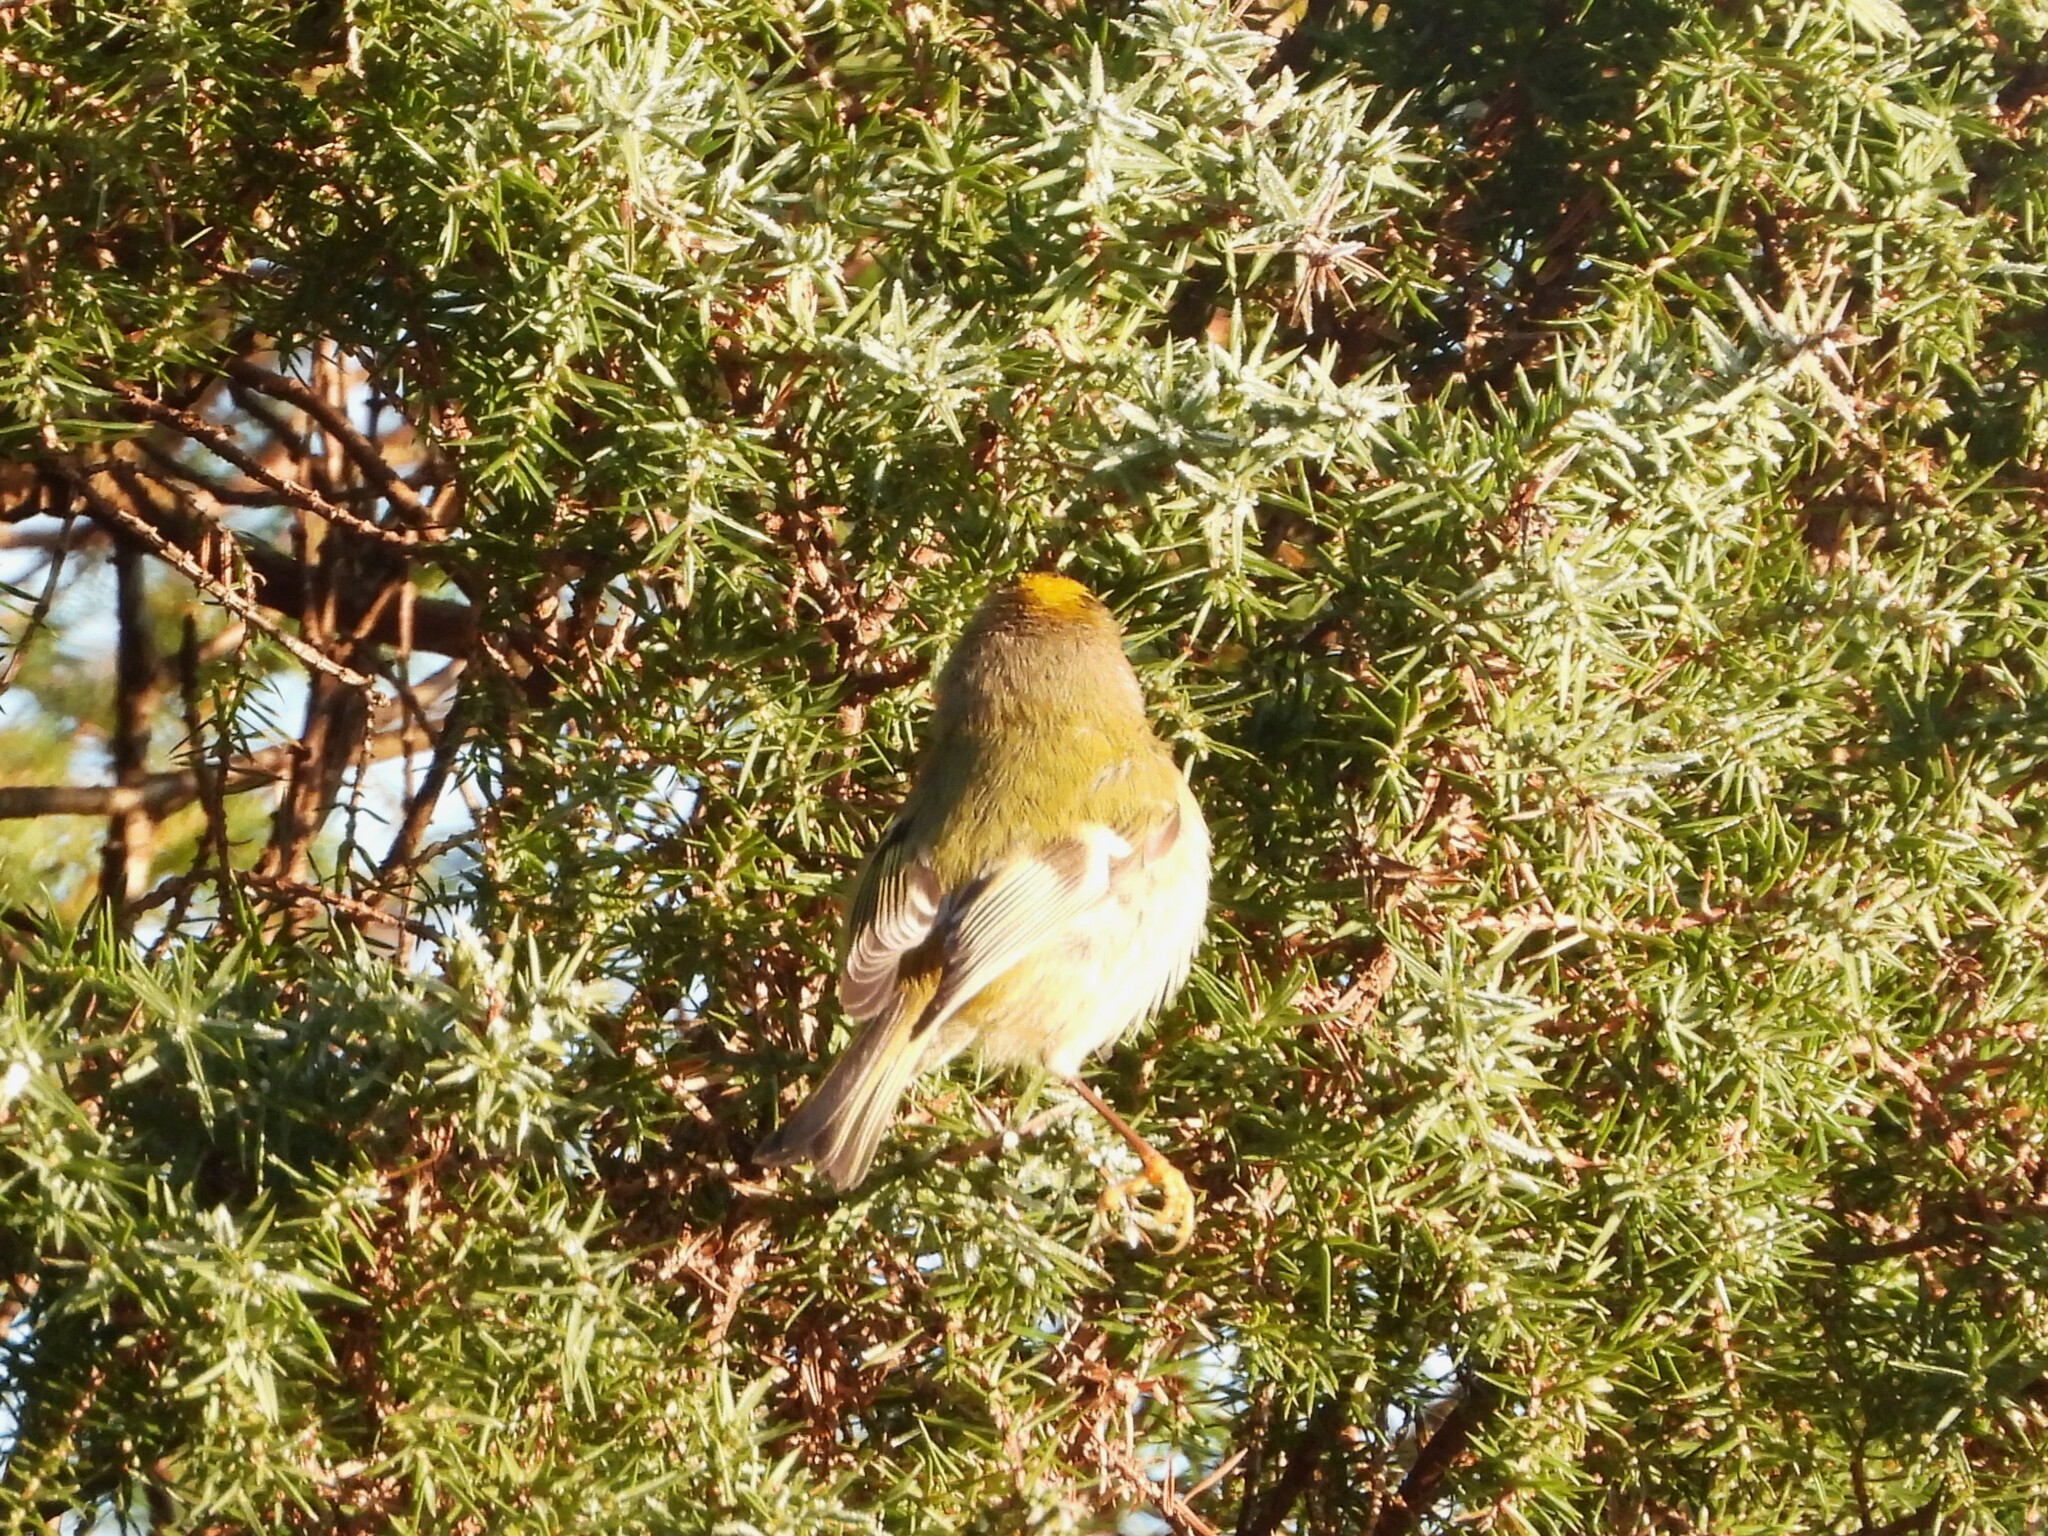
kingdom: Animalia
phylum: Chordata
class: Aves
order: Passeriformes
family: Regulidae
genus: Regulus
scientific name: Regulus regulus
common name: Goldcrest
